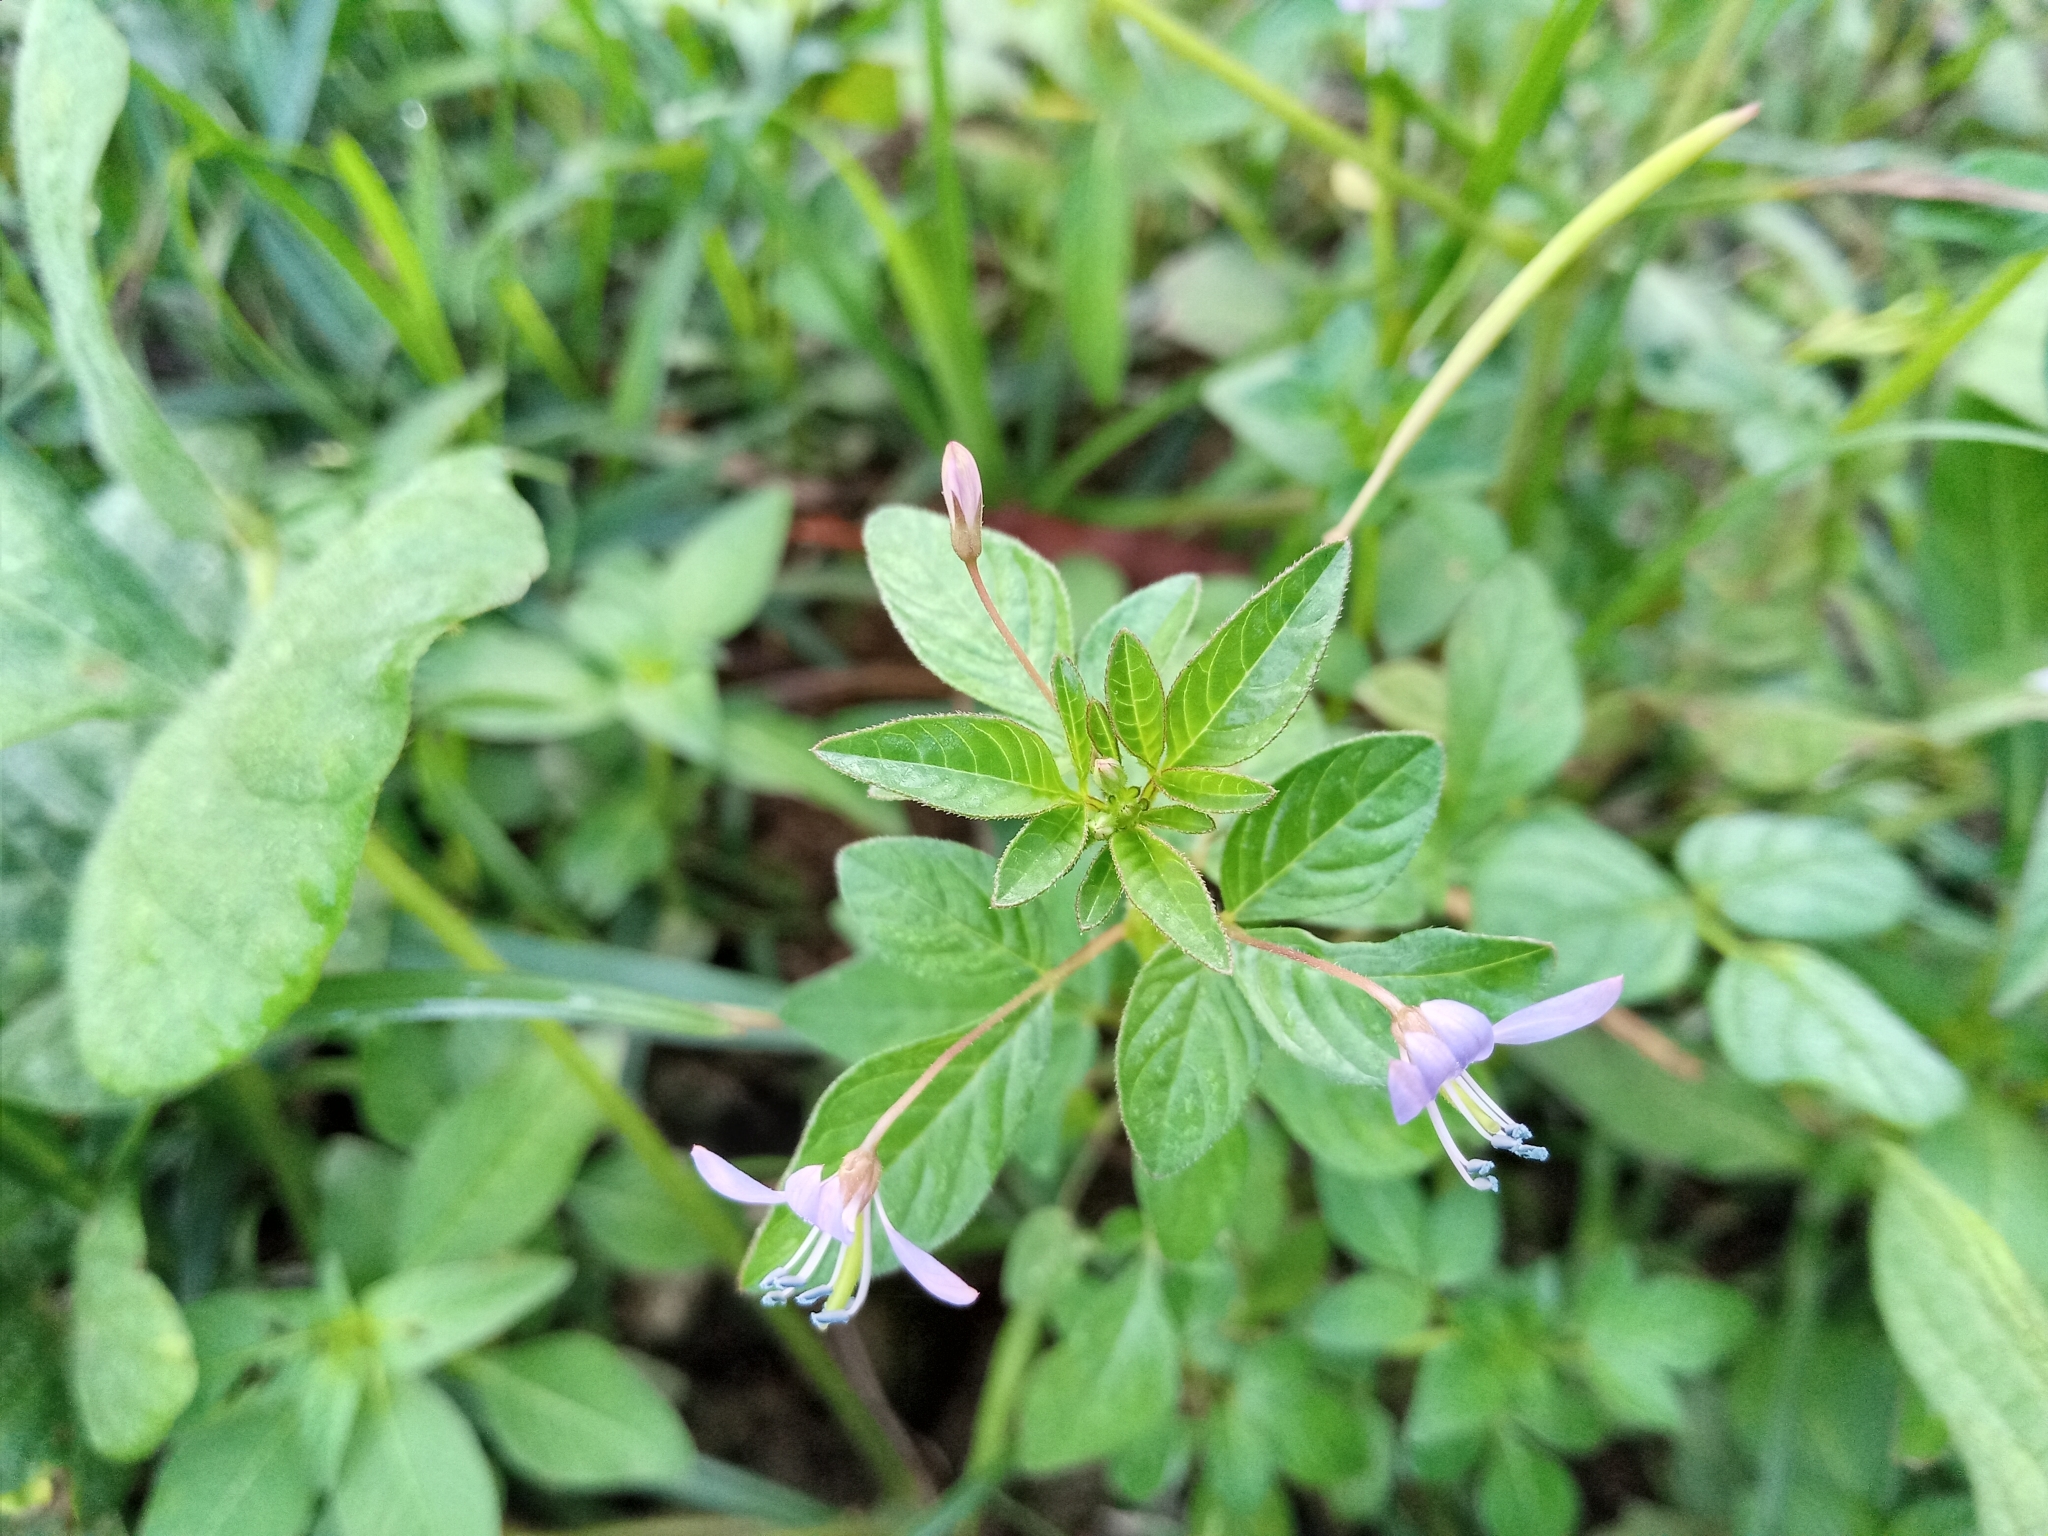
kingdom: Plantae
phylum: Tracheophyta
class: Magnoliopsida
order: Brassicales
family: Cleomaceae
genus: Sieruela
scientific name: Sieruela rutidosperma
